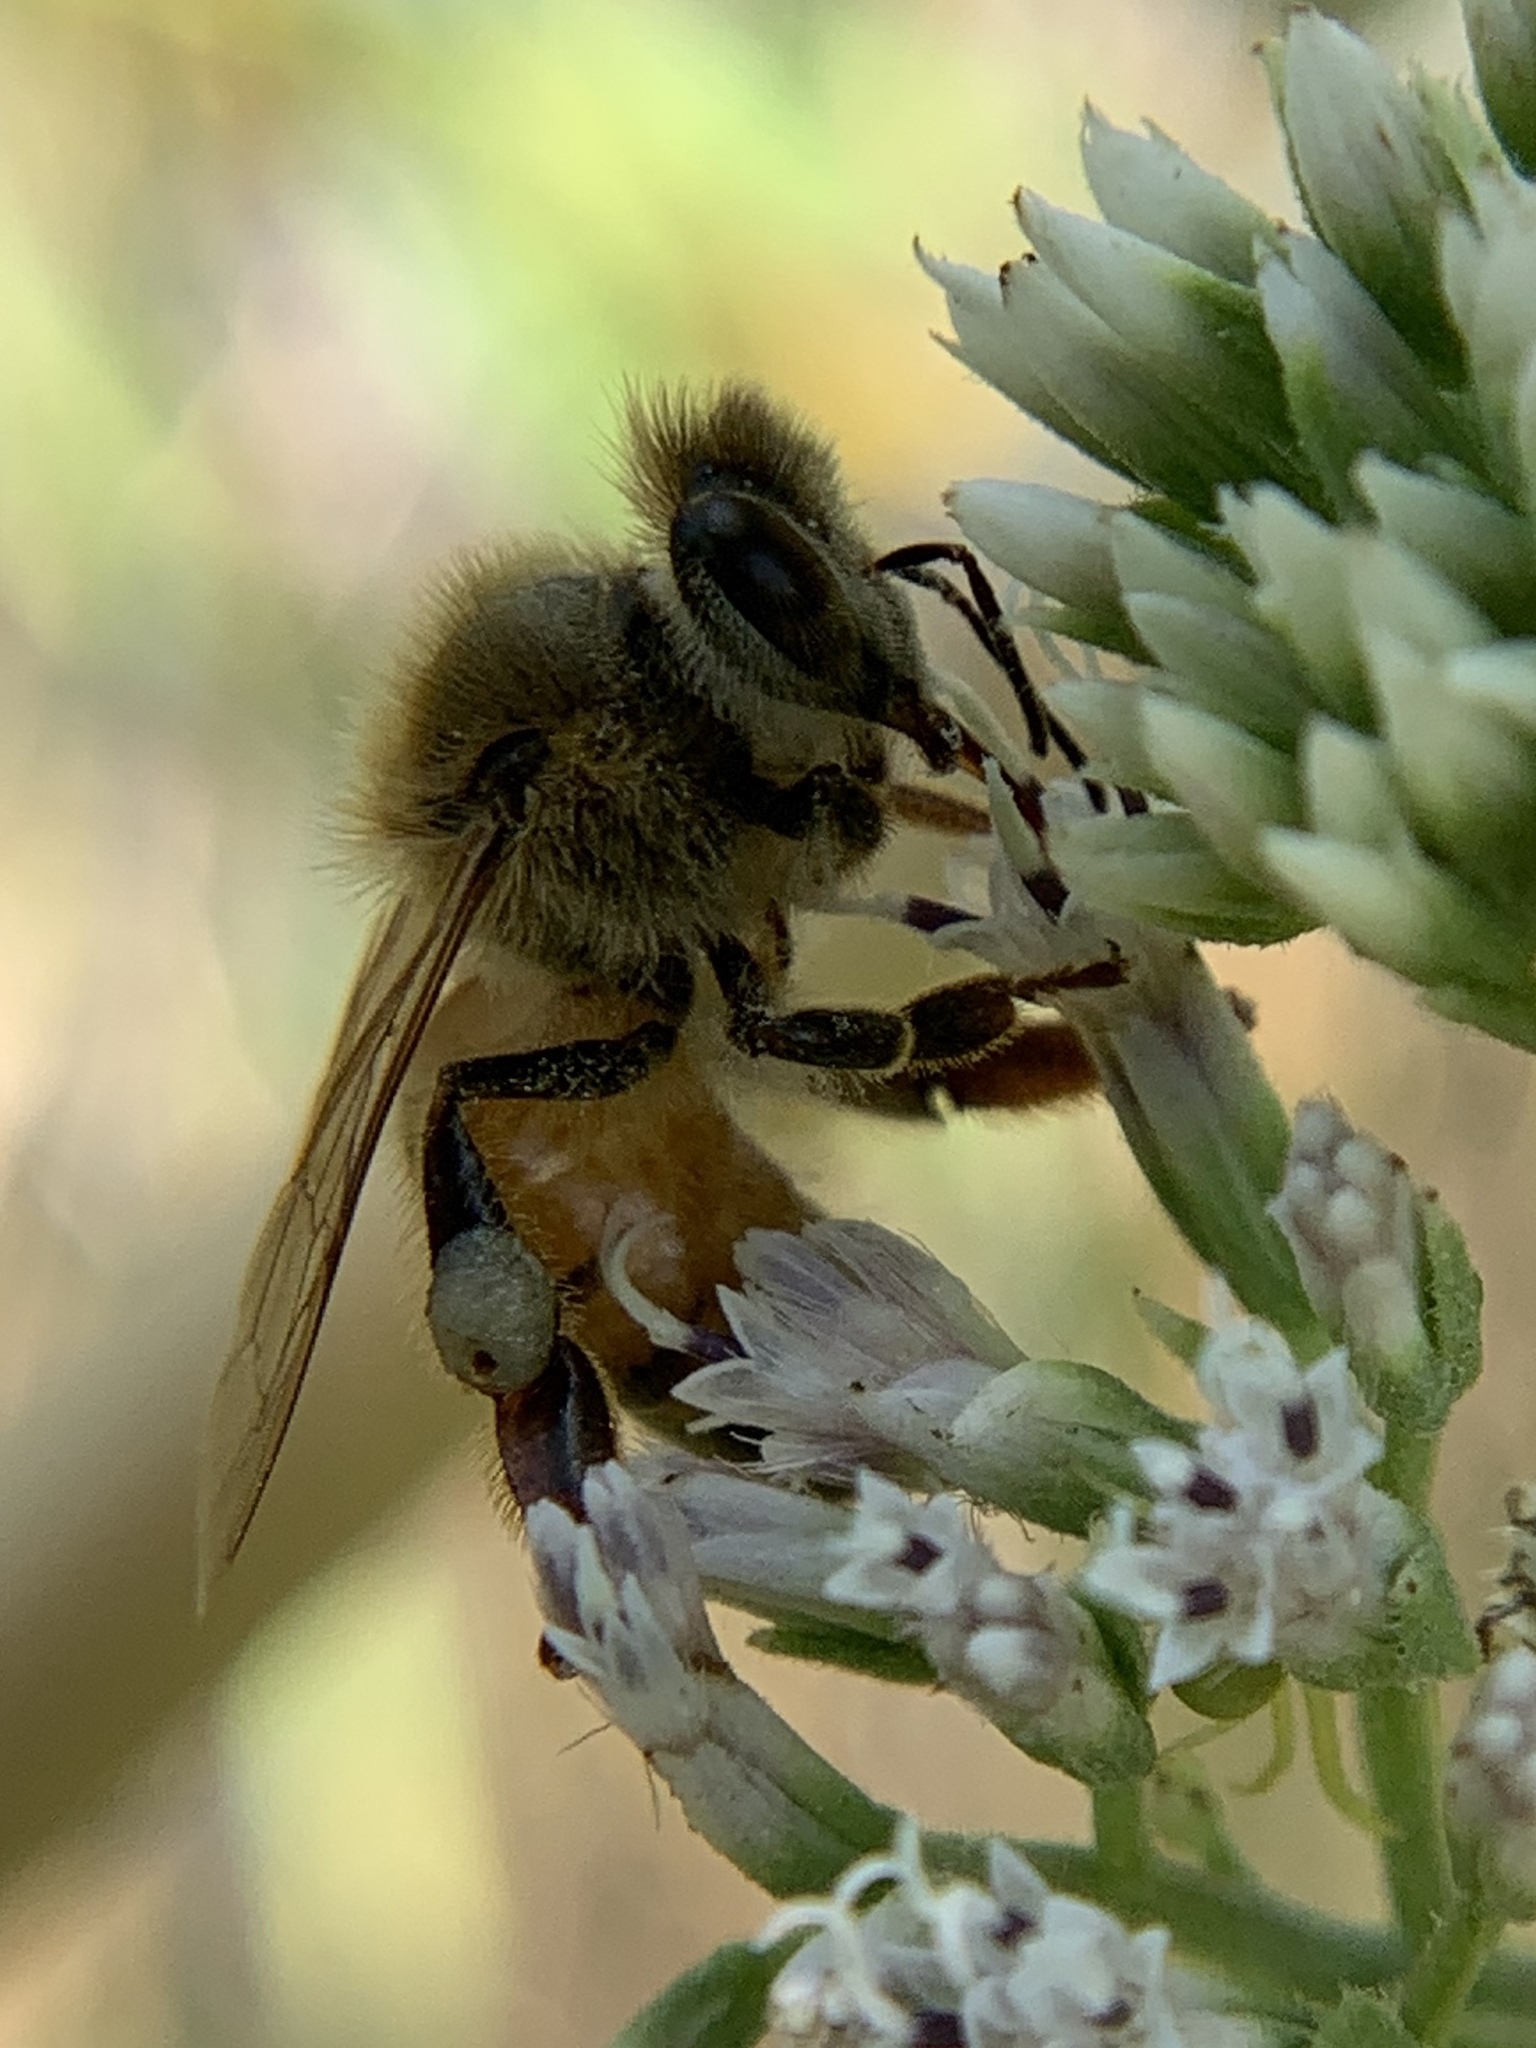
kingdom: Animalia
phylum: Arthropoda
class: Insecta
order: Hymenoptera
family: Apidae
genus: Apis
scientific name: Apis mellifera
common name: Honey bee
